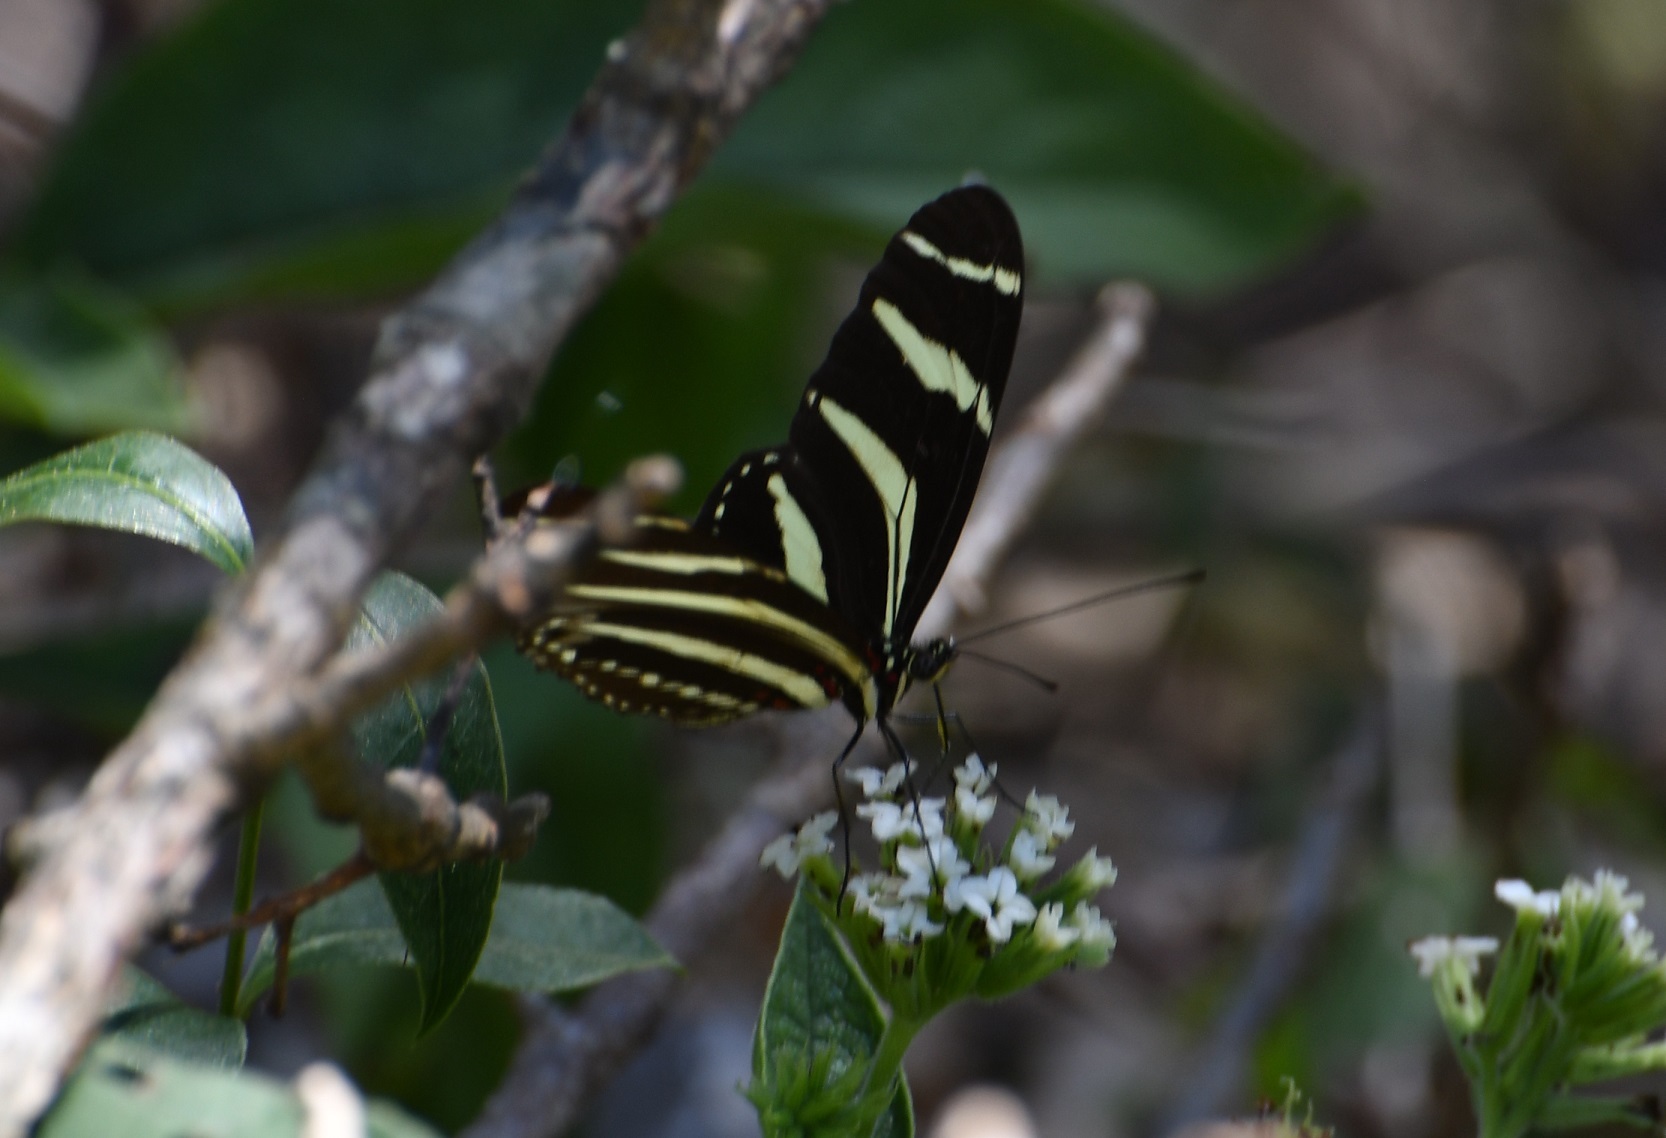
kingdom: Animalia
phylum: Arthropoda
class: Insecta
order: Lepidoptera
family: Nymphalidae
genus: Heliconius
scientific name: Heliconius charithonia
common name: Zebra long wing
